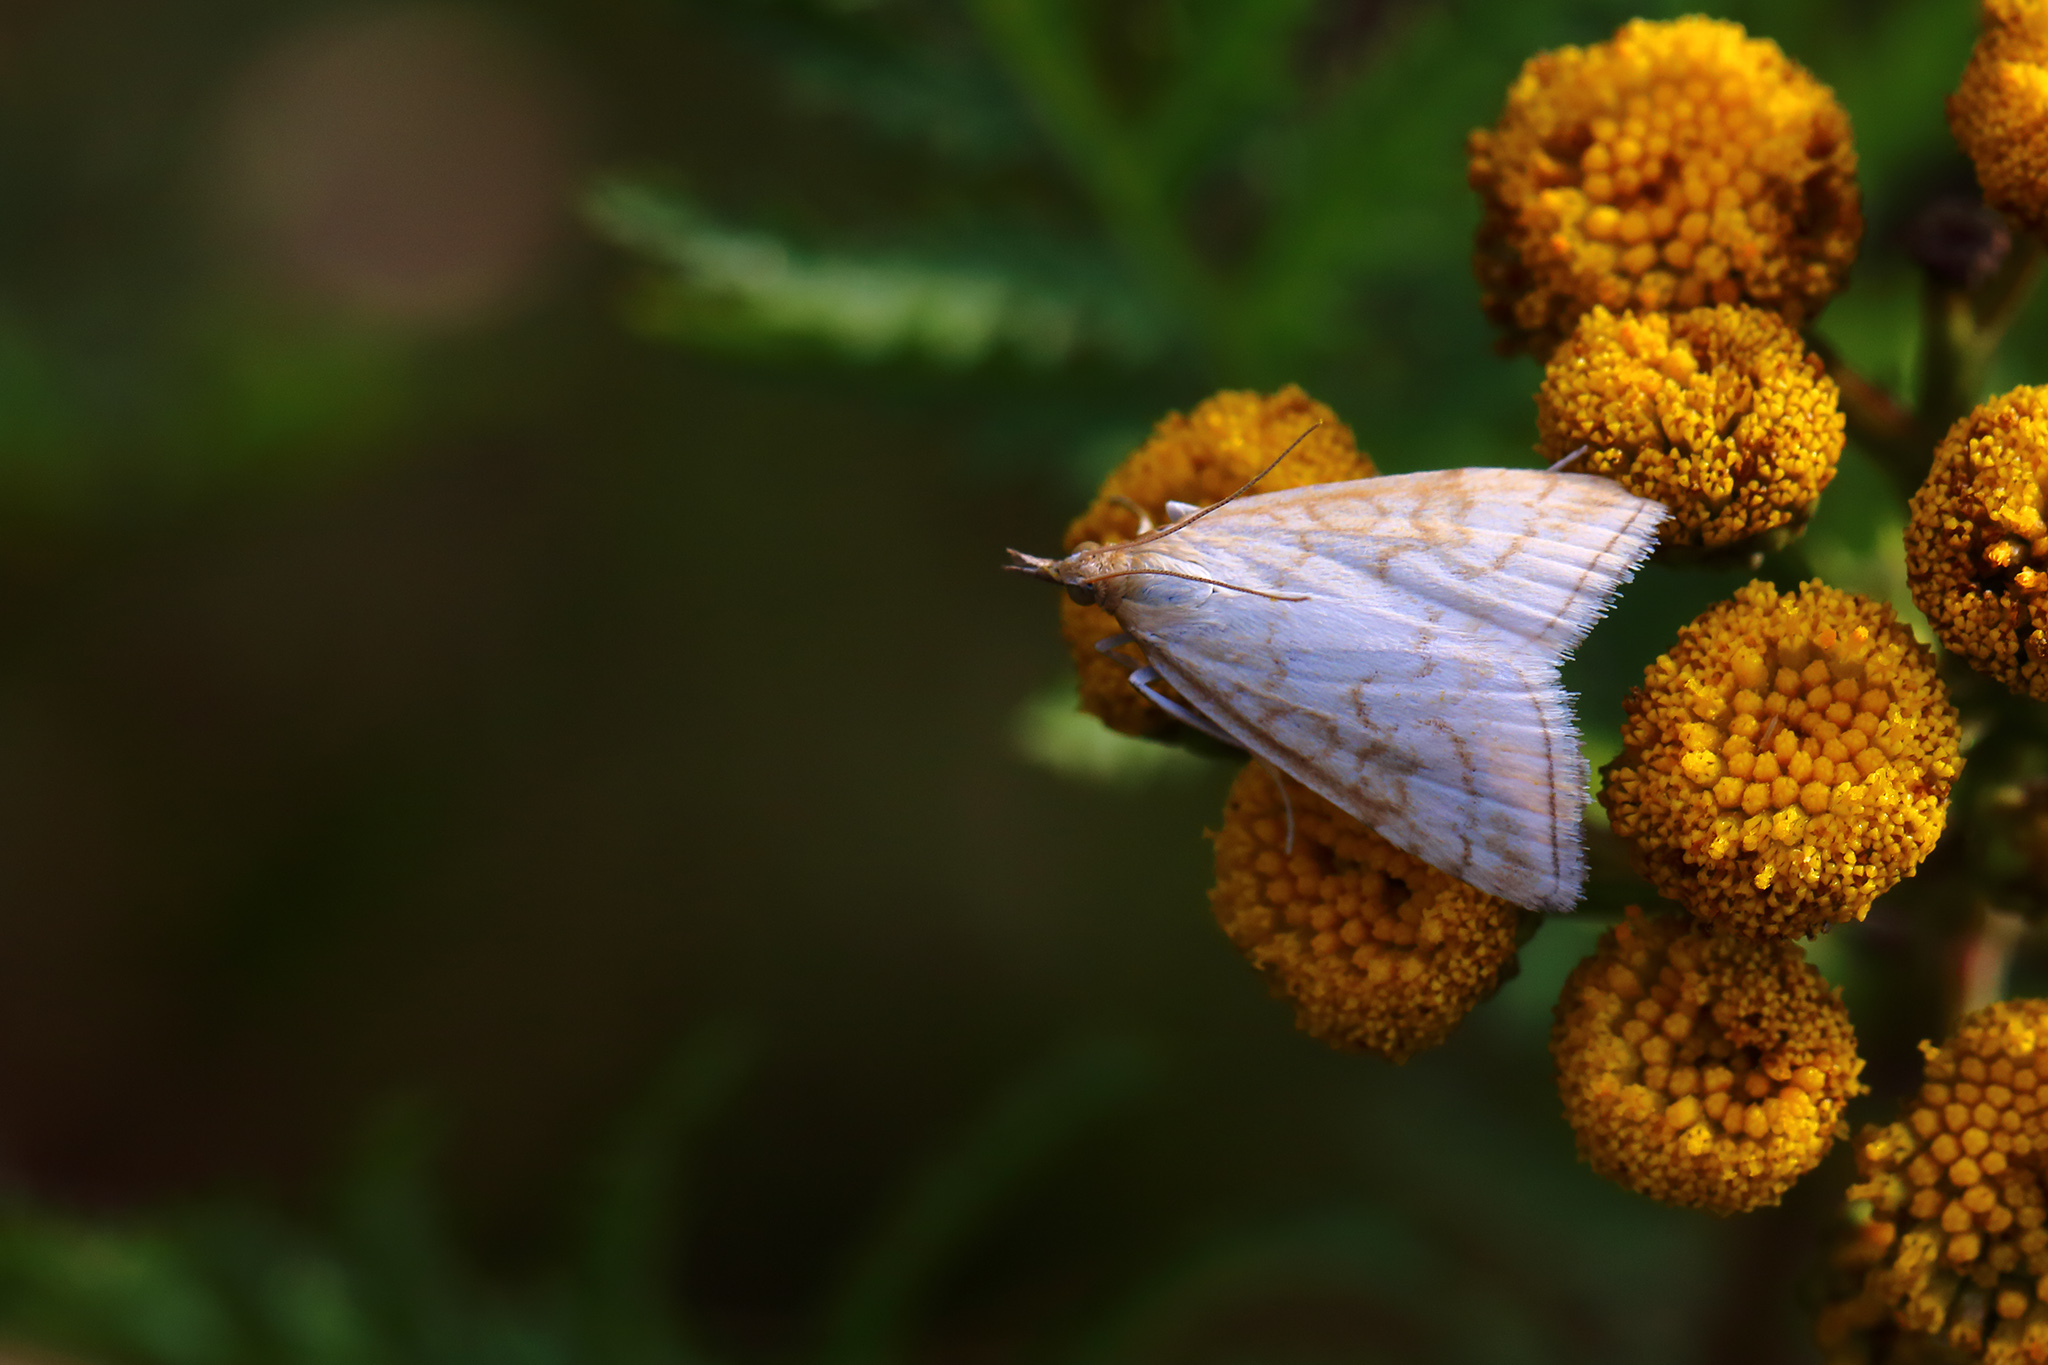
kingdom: Animalia
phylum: Arthropoda
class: Insecta
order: Lepidoptera
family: Crambidae
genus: Udea
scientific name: Udea lutealis
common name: Pale straw pearl
